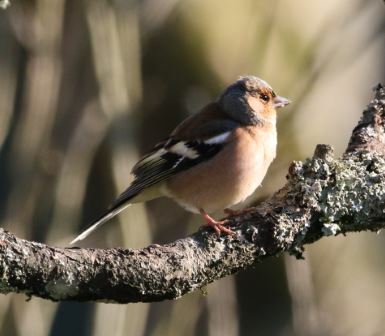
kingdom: Animalia
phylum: Chordata
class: Aves
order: Passeriformes
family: Fringillidae
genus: Fringilla
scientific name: Fringilla coelebs
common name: Common chaffinch
